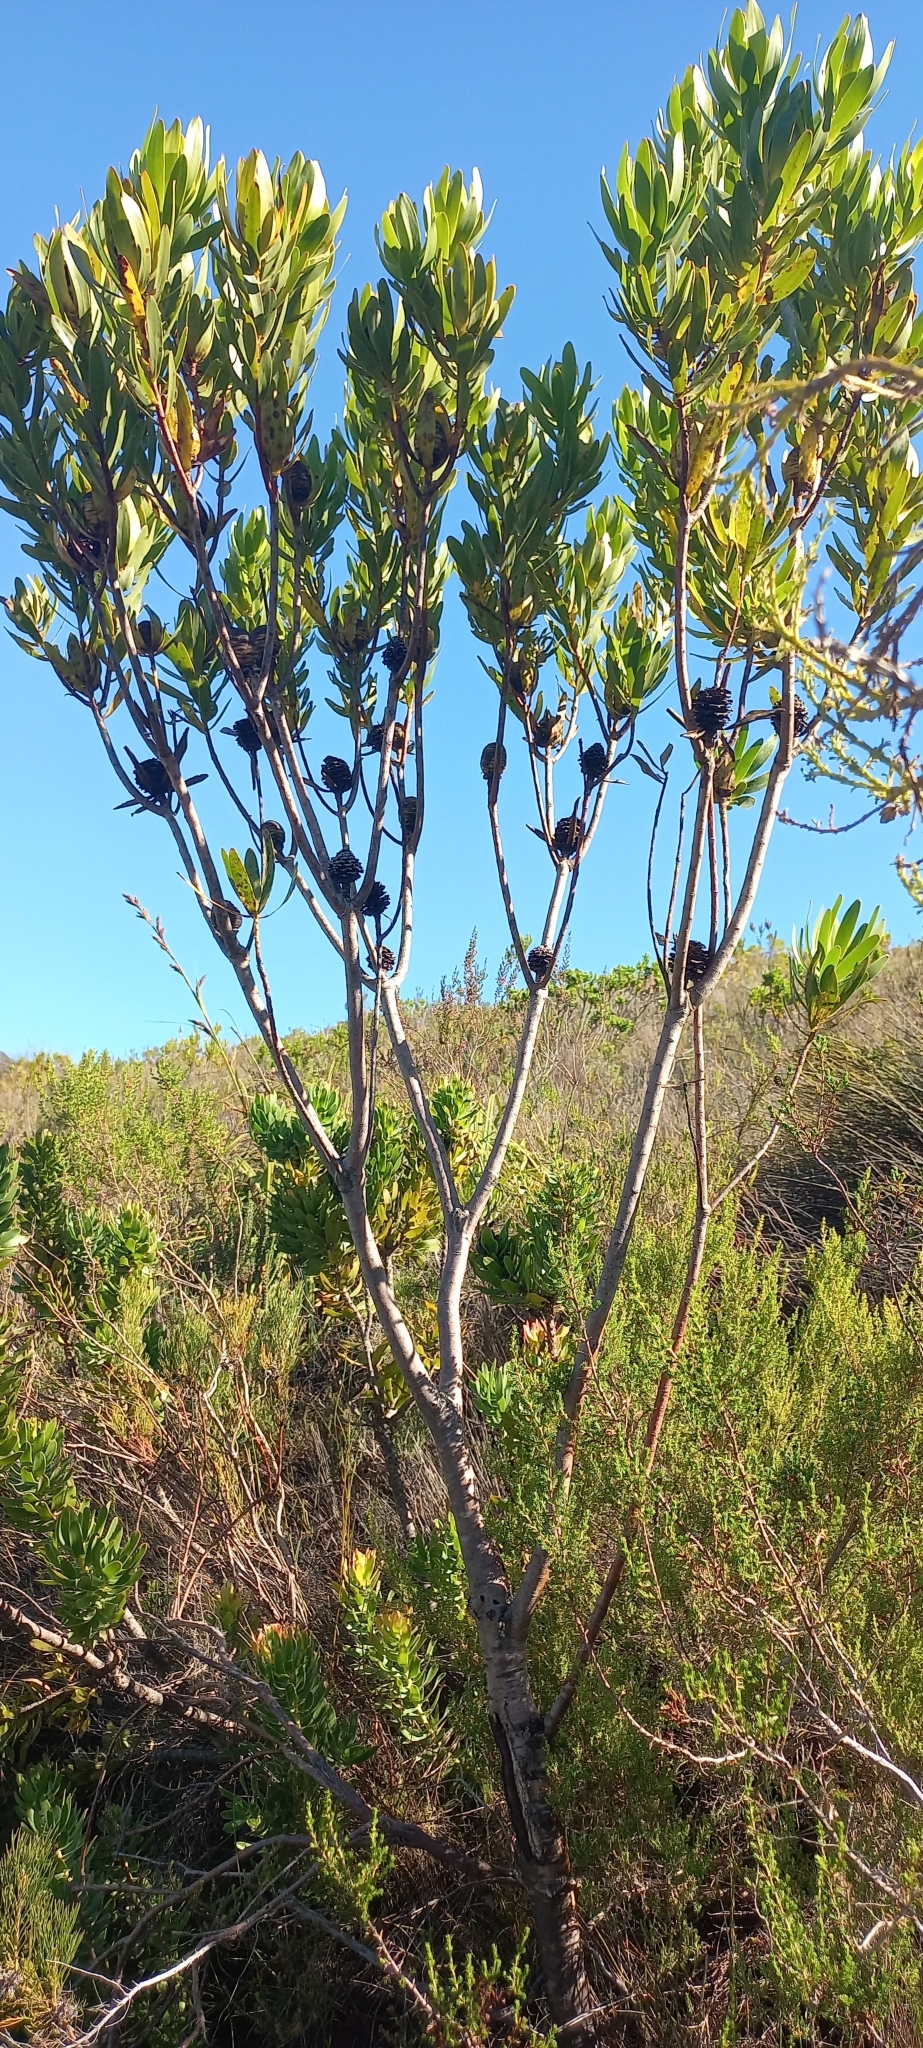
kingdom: Plantae
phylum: Tracheophyta
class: Magnoliopsida
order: Proteales
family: Proteaceae
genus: Leucadendron
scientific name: Leucadendron laureolum
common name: Golden sunshinebush
